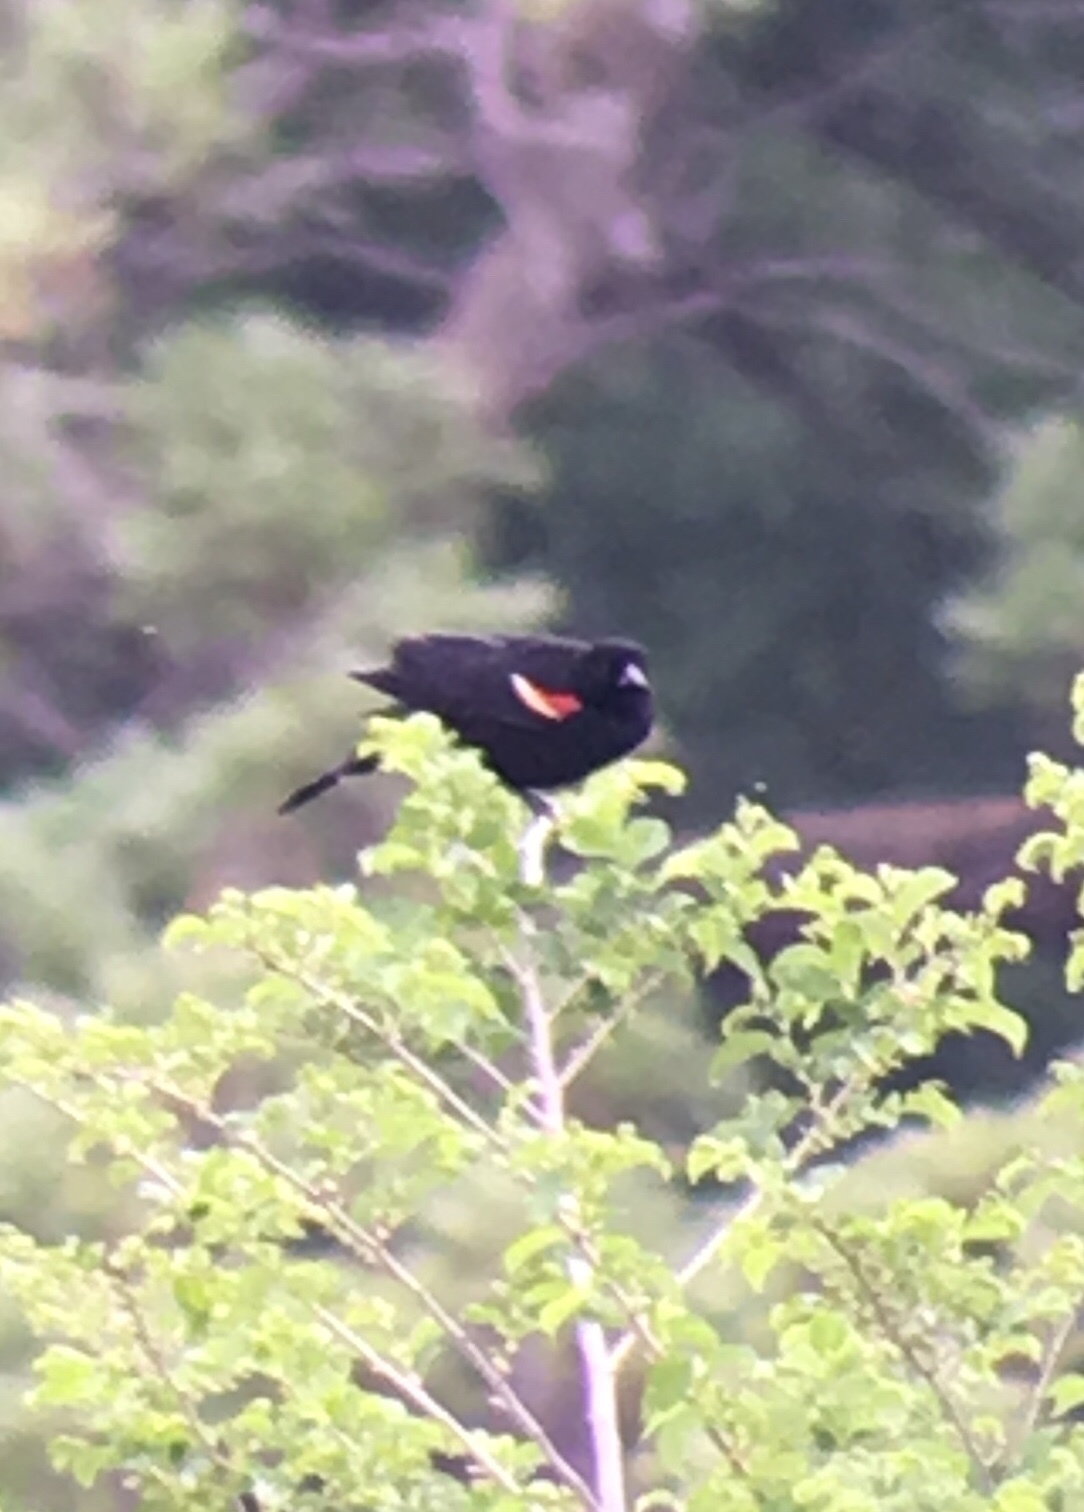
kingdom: Animalia
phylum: Chordata
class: Aves
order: Passeriformes
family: Icteridae
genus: Agelaius
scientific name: Agelaius phoeniceus
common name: Red-winged blackbird
